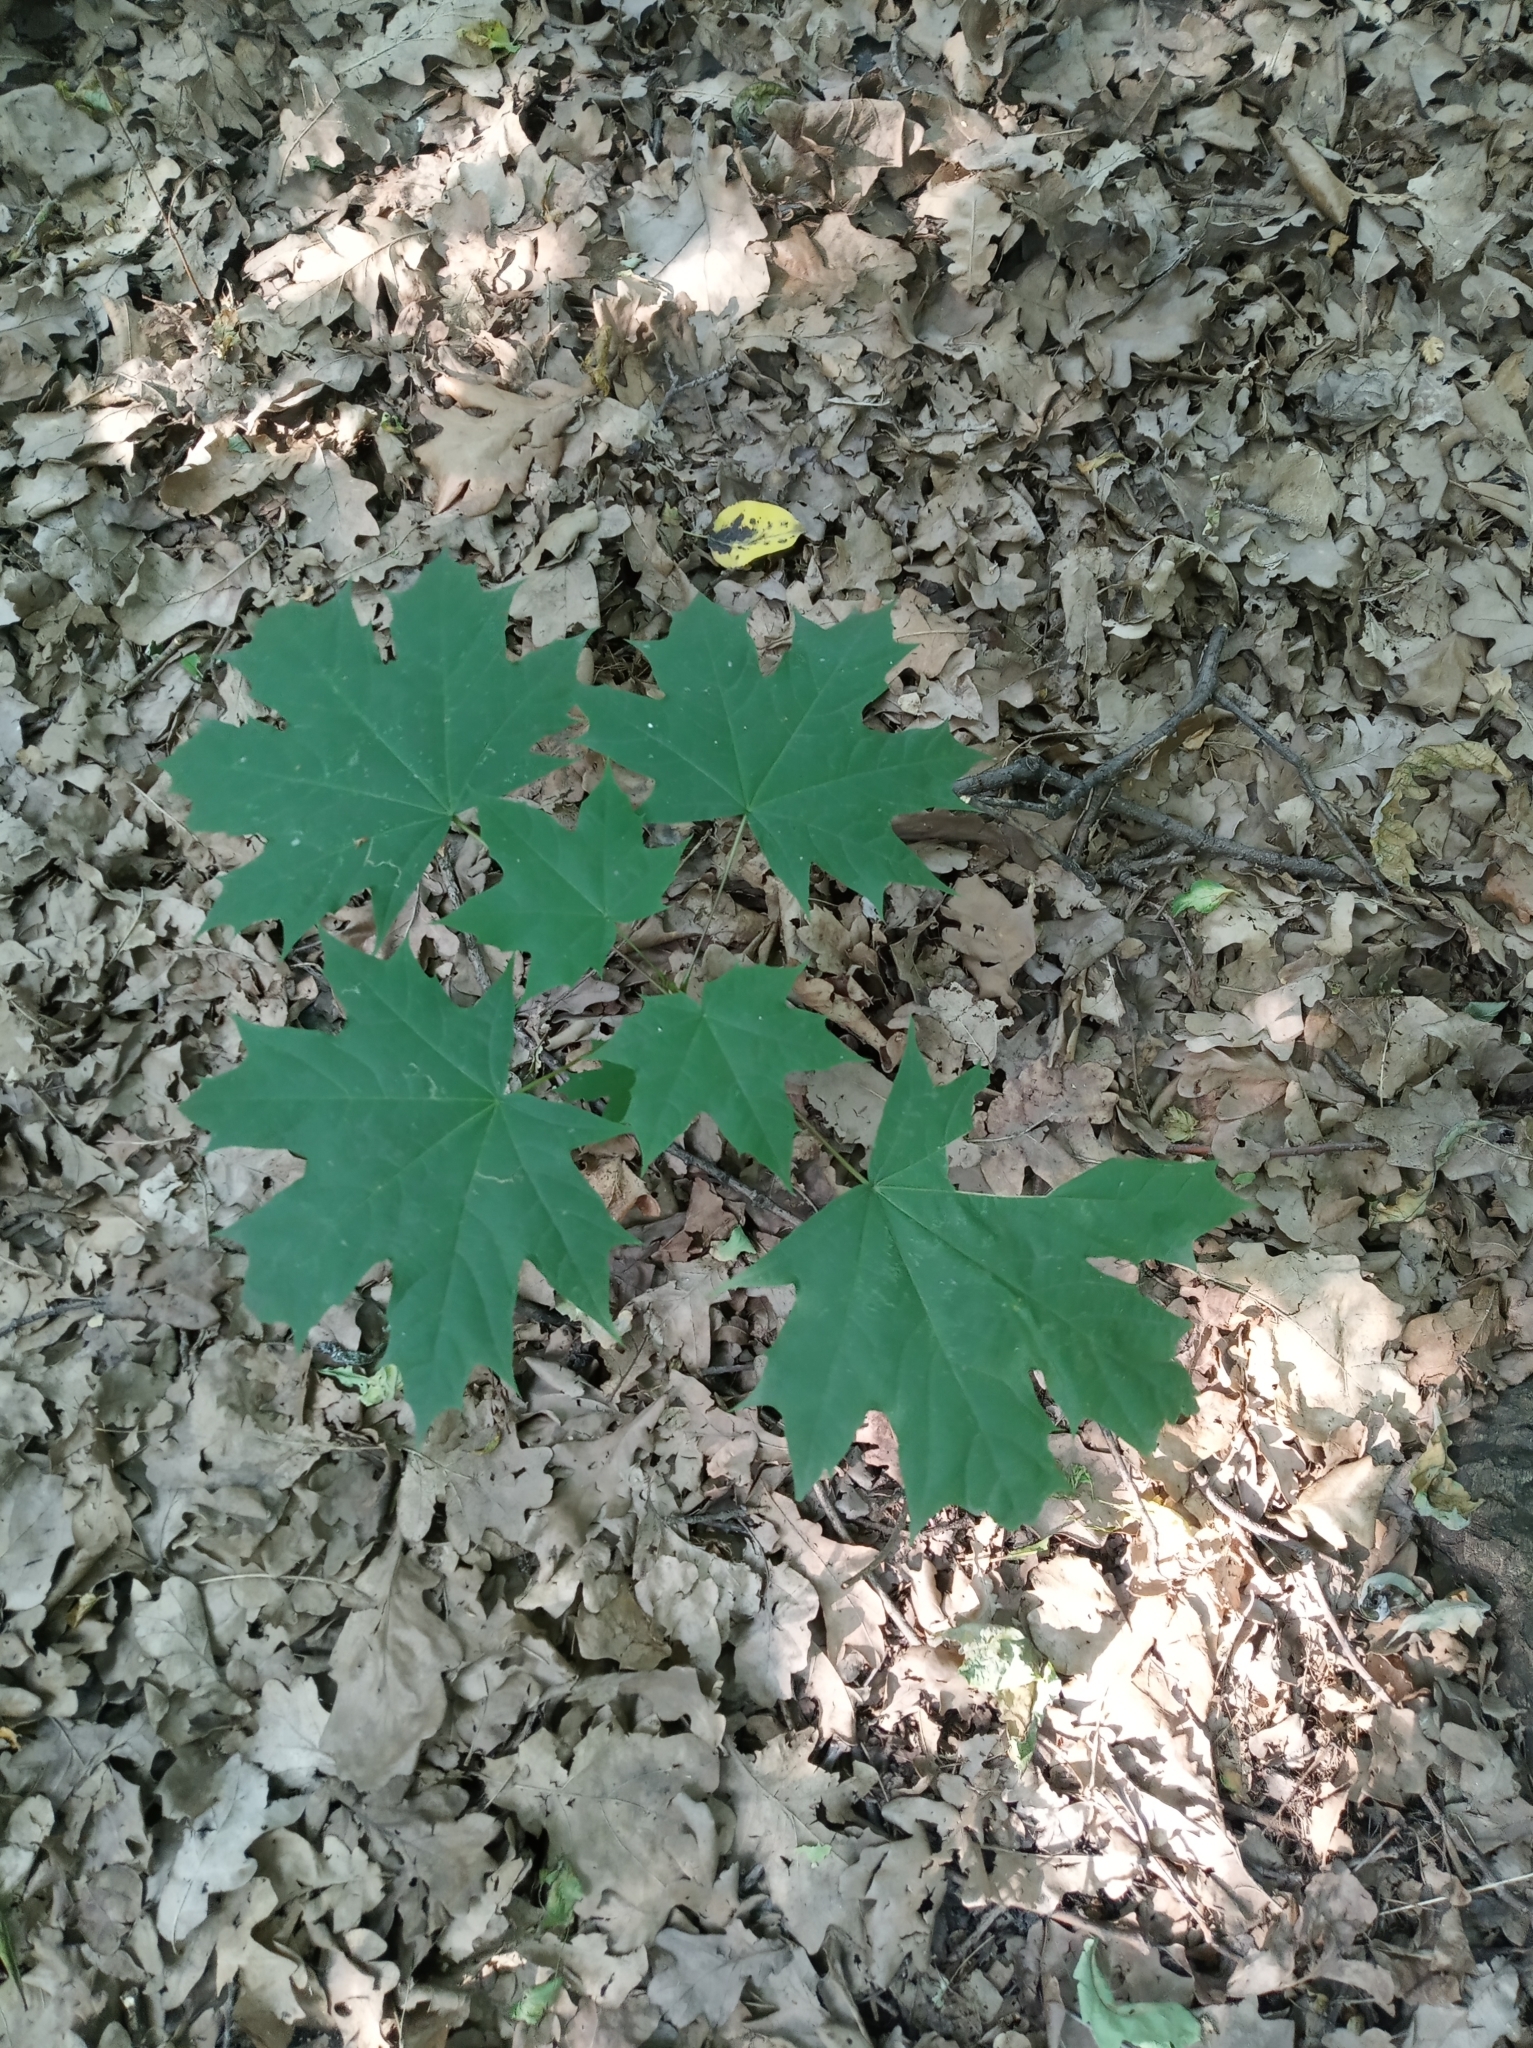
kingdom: Plantae
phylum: Tracheophyta
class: Magnoliopsida
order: Sapindales
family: Sapindaceae
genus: Acer
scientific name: Acer platanoides
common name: Norway maple
